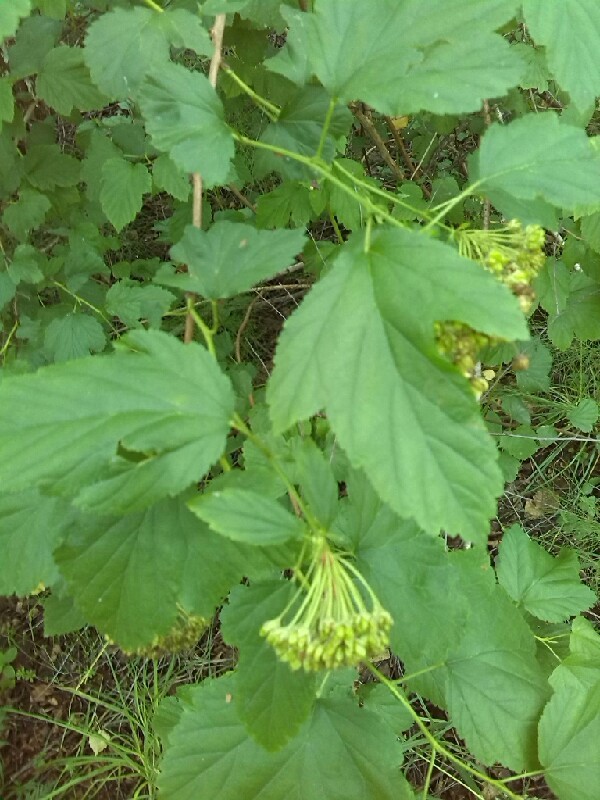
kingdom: Plantae
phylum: Tracheophyta
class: Magnoliopsida
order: Rosales
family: Rosaceae
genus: Physocarpus
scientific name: Physocarpus opulifolius
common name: Ninebark
